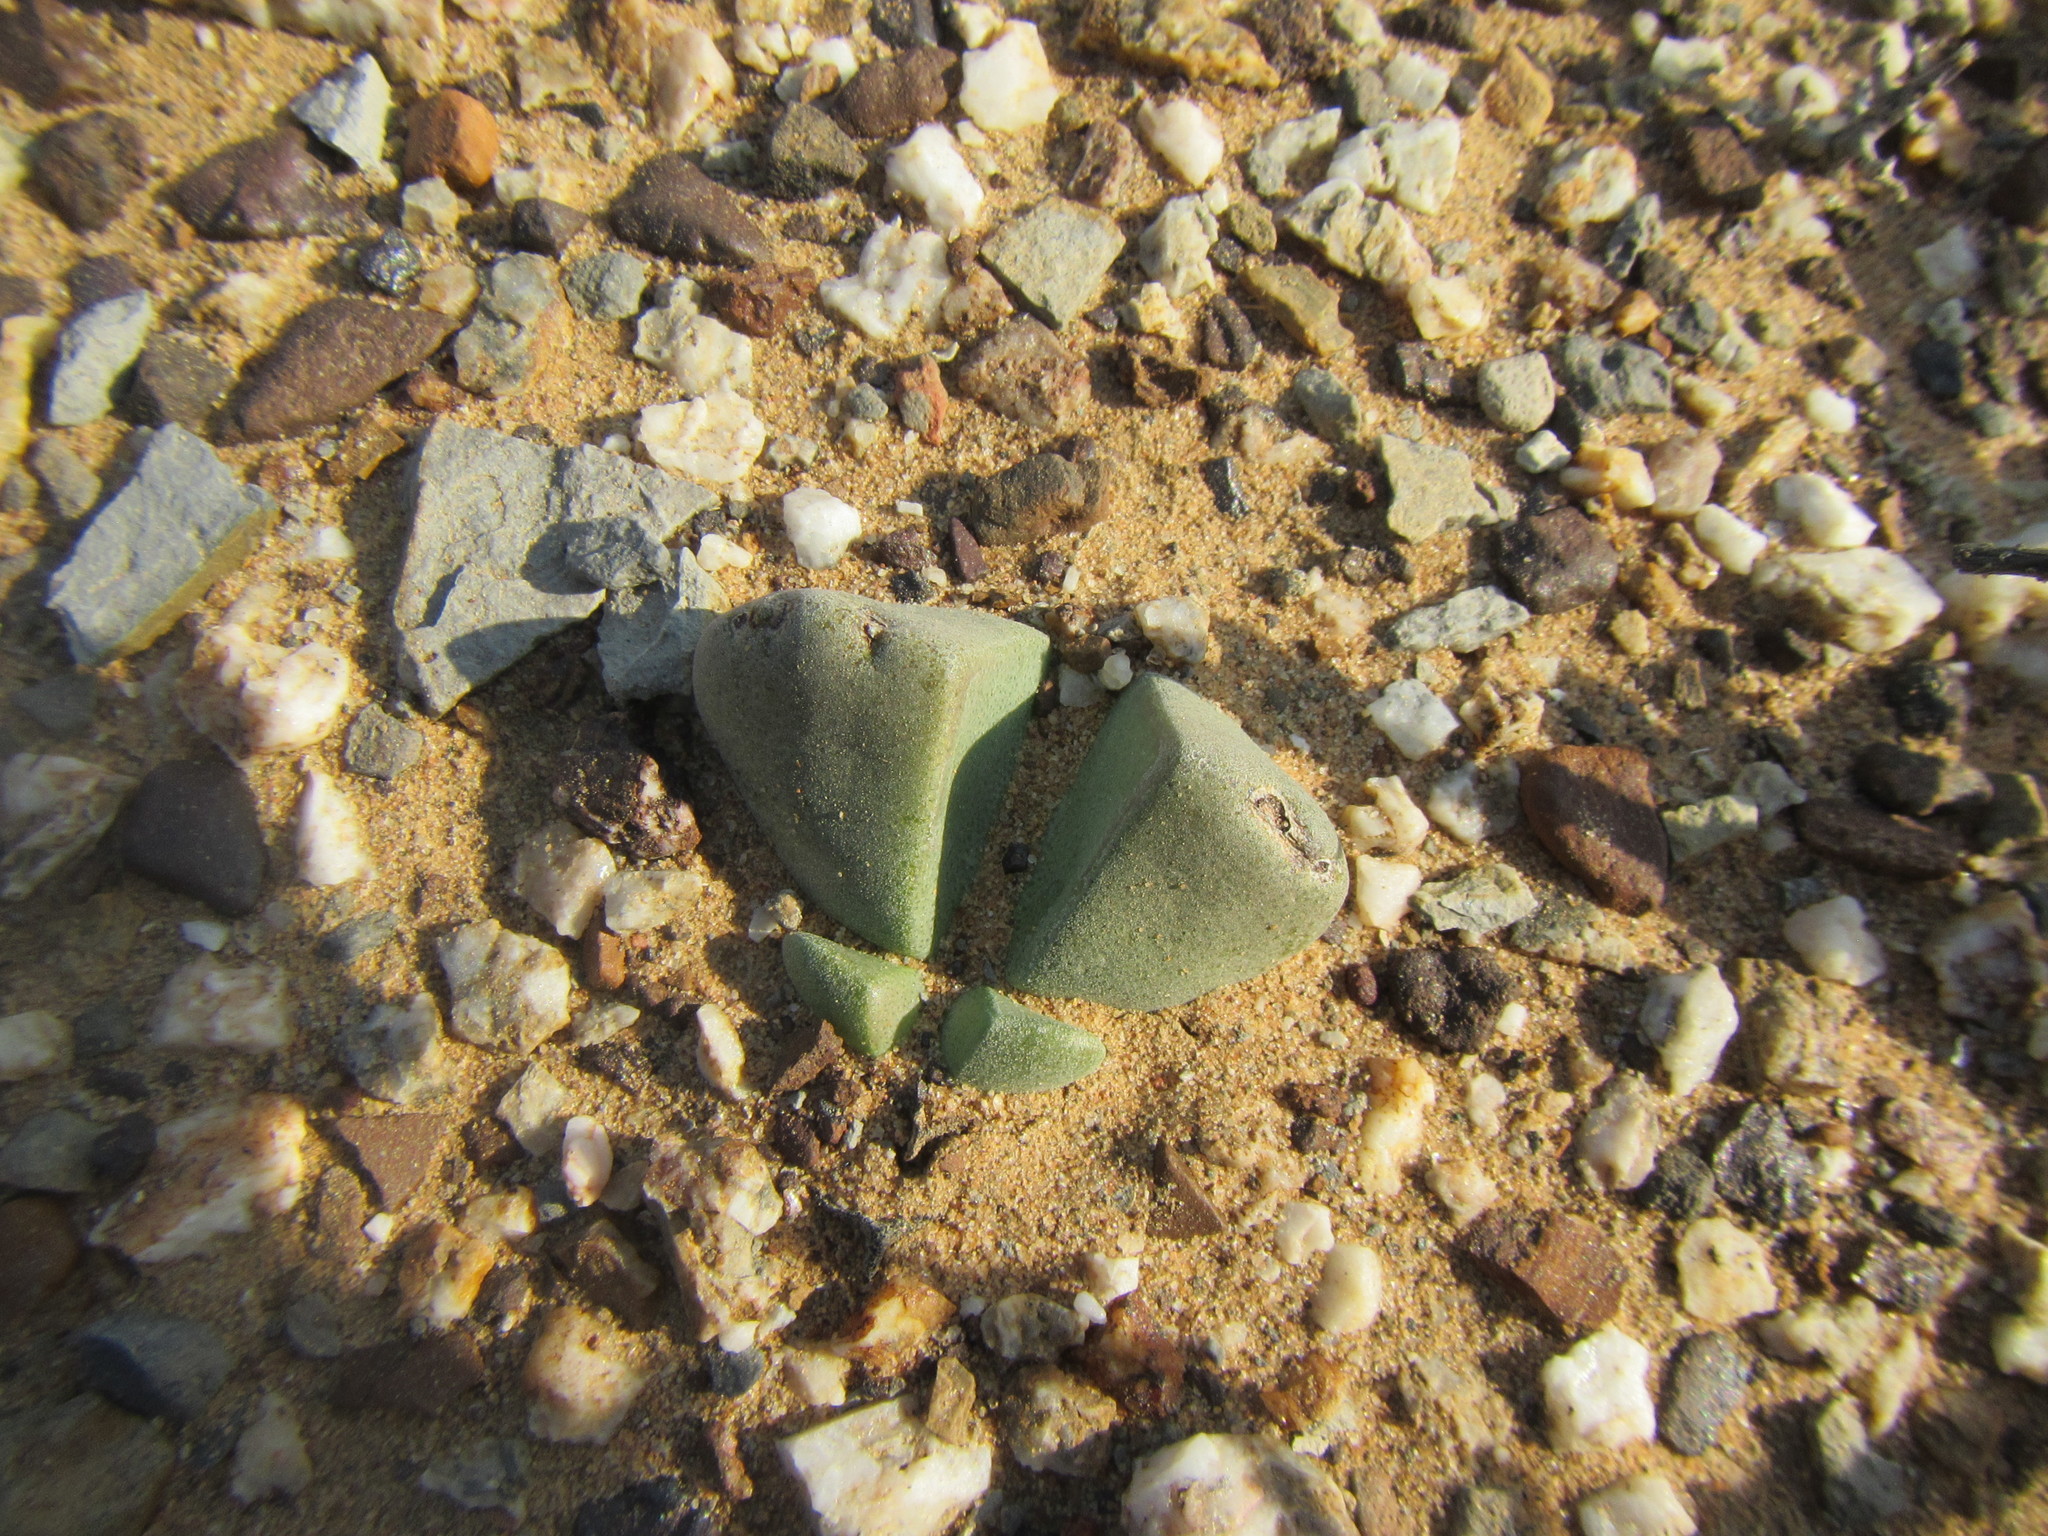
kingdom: Plantae
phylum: Tracheophyta
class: Magnoliopsida
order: Caryophyllales
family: Aizoaceae
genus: Didymaotus
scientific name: Didymaotus lapidiformis
